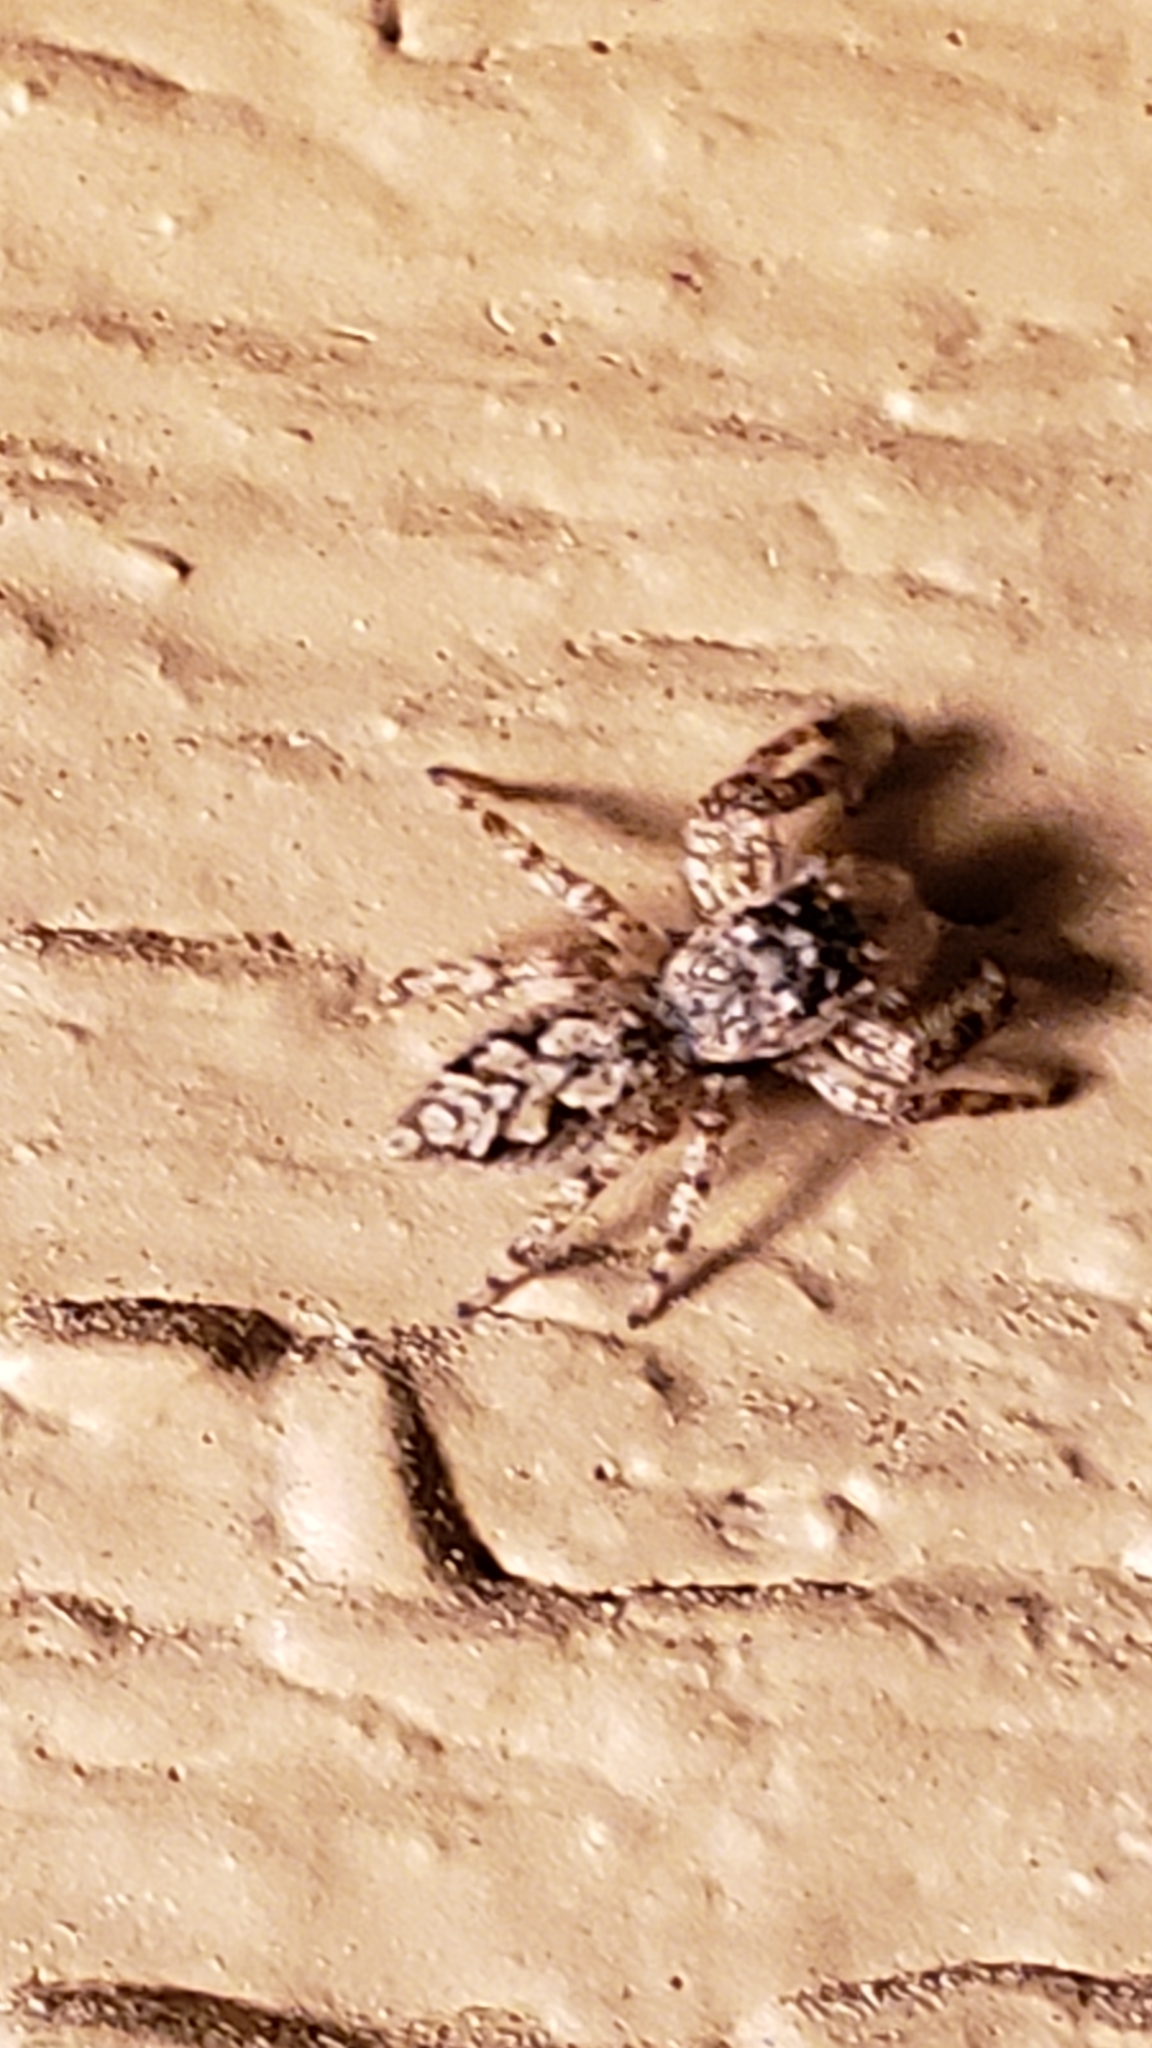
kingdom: Animalia
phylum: Arthropoda
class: Arachnida
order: Araneae
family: Salticidae
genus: Platycryptus
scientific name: Platycryptus undatus
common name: Tan jumping spider
